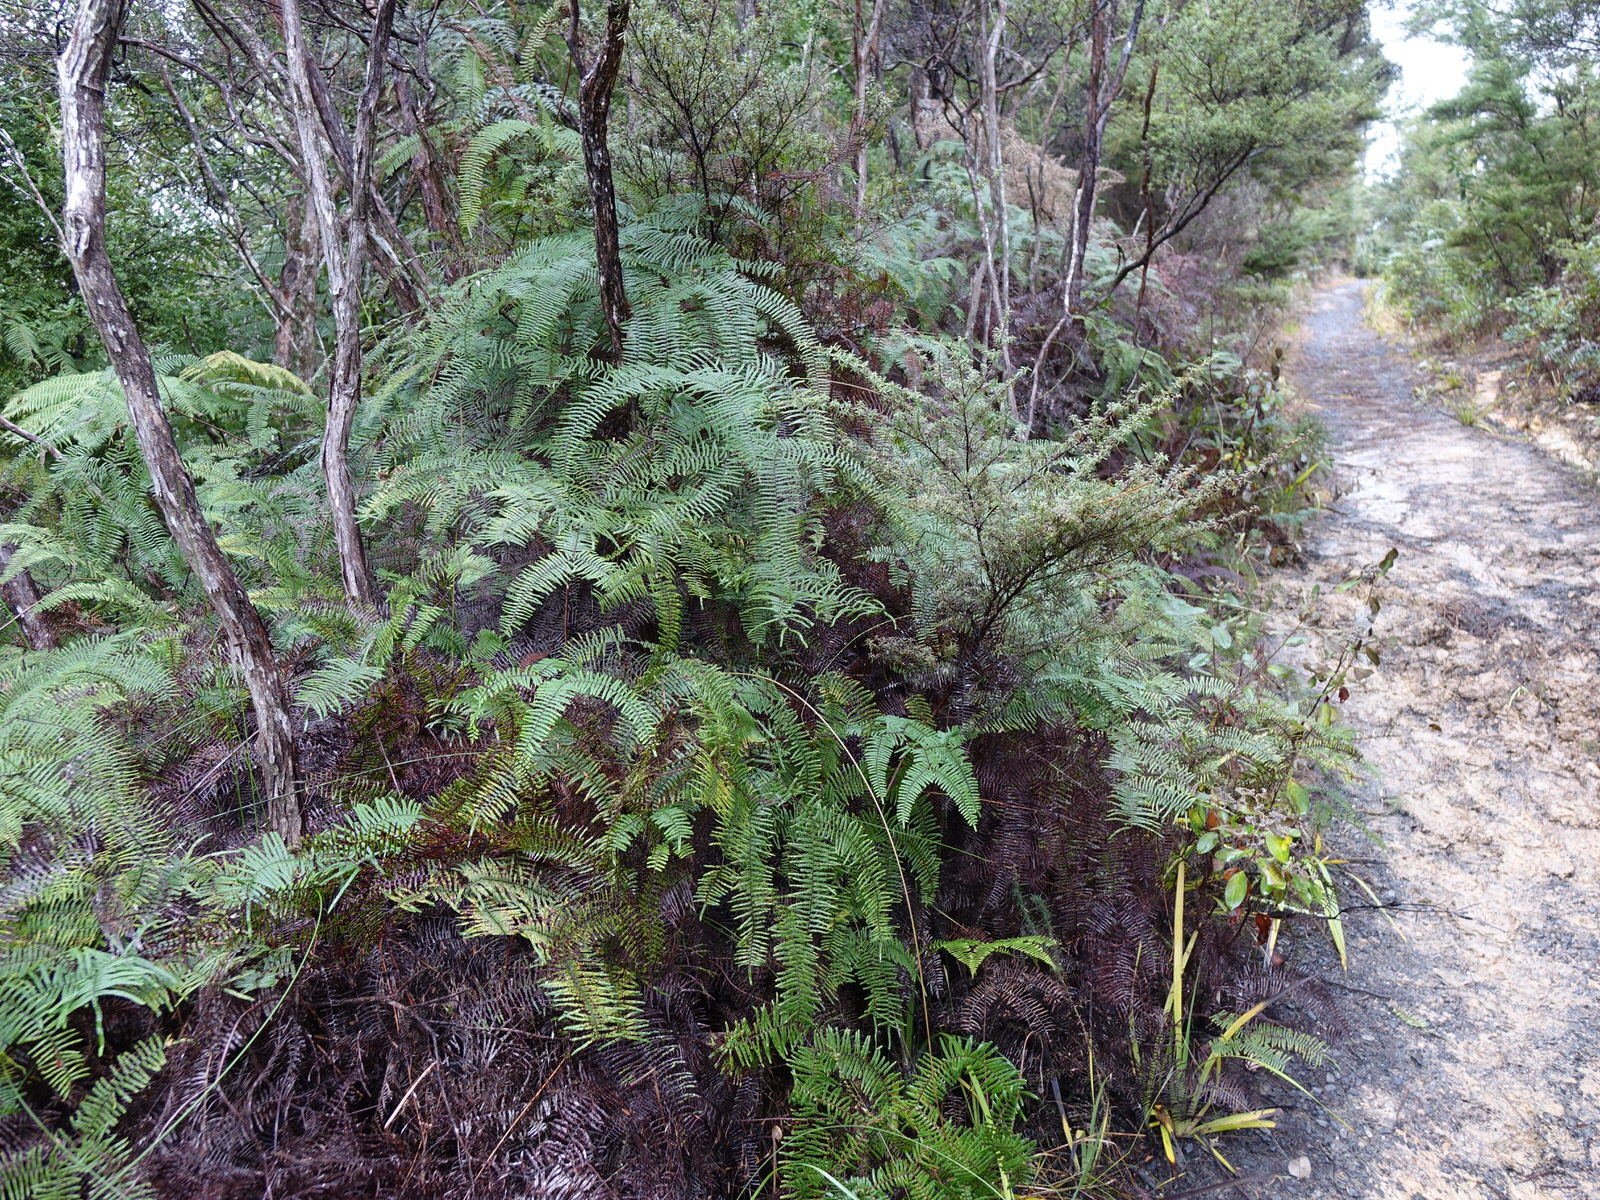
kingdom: Plantae
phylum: Tracheophyta
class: Polypodiopsida
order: Gleicheniales
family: Gleicheniaceae
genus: Gleichenia
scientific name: Gleichenia microphylla
